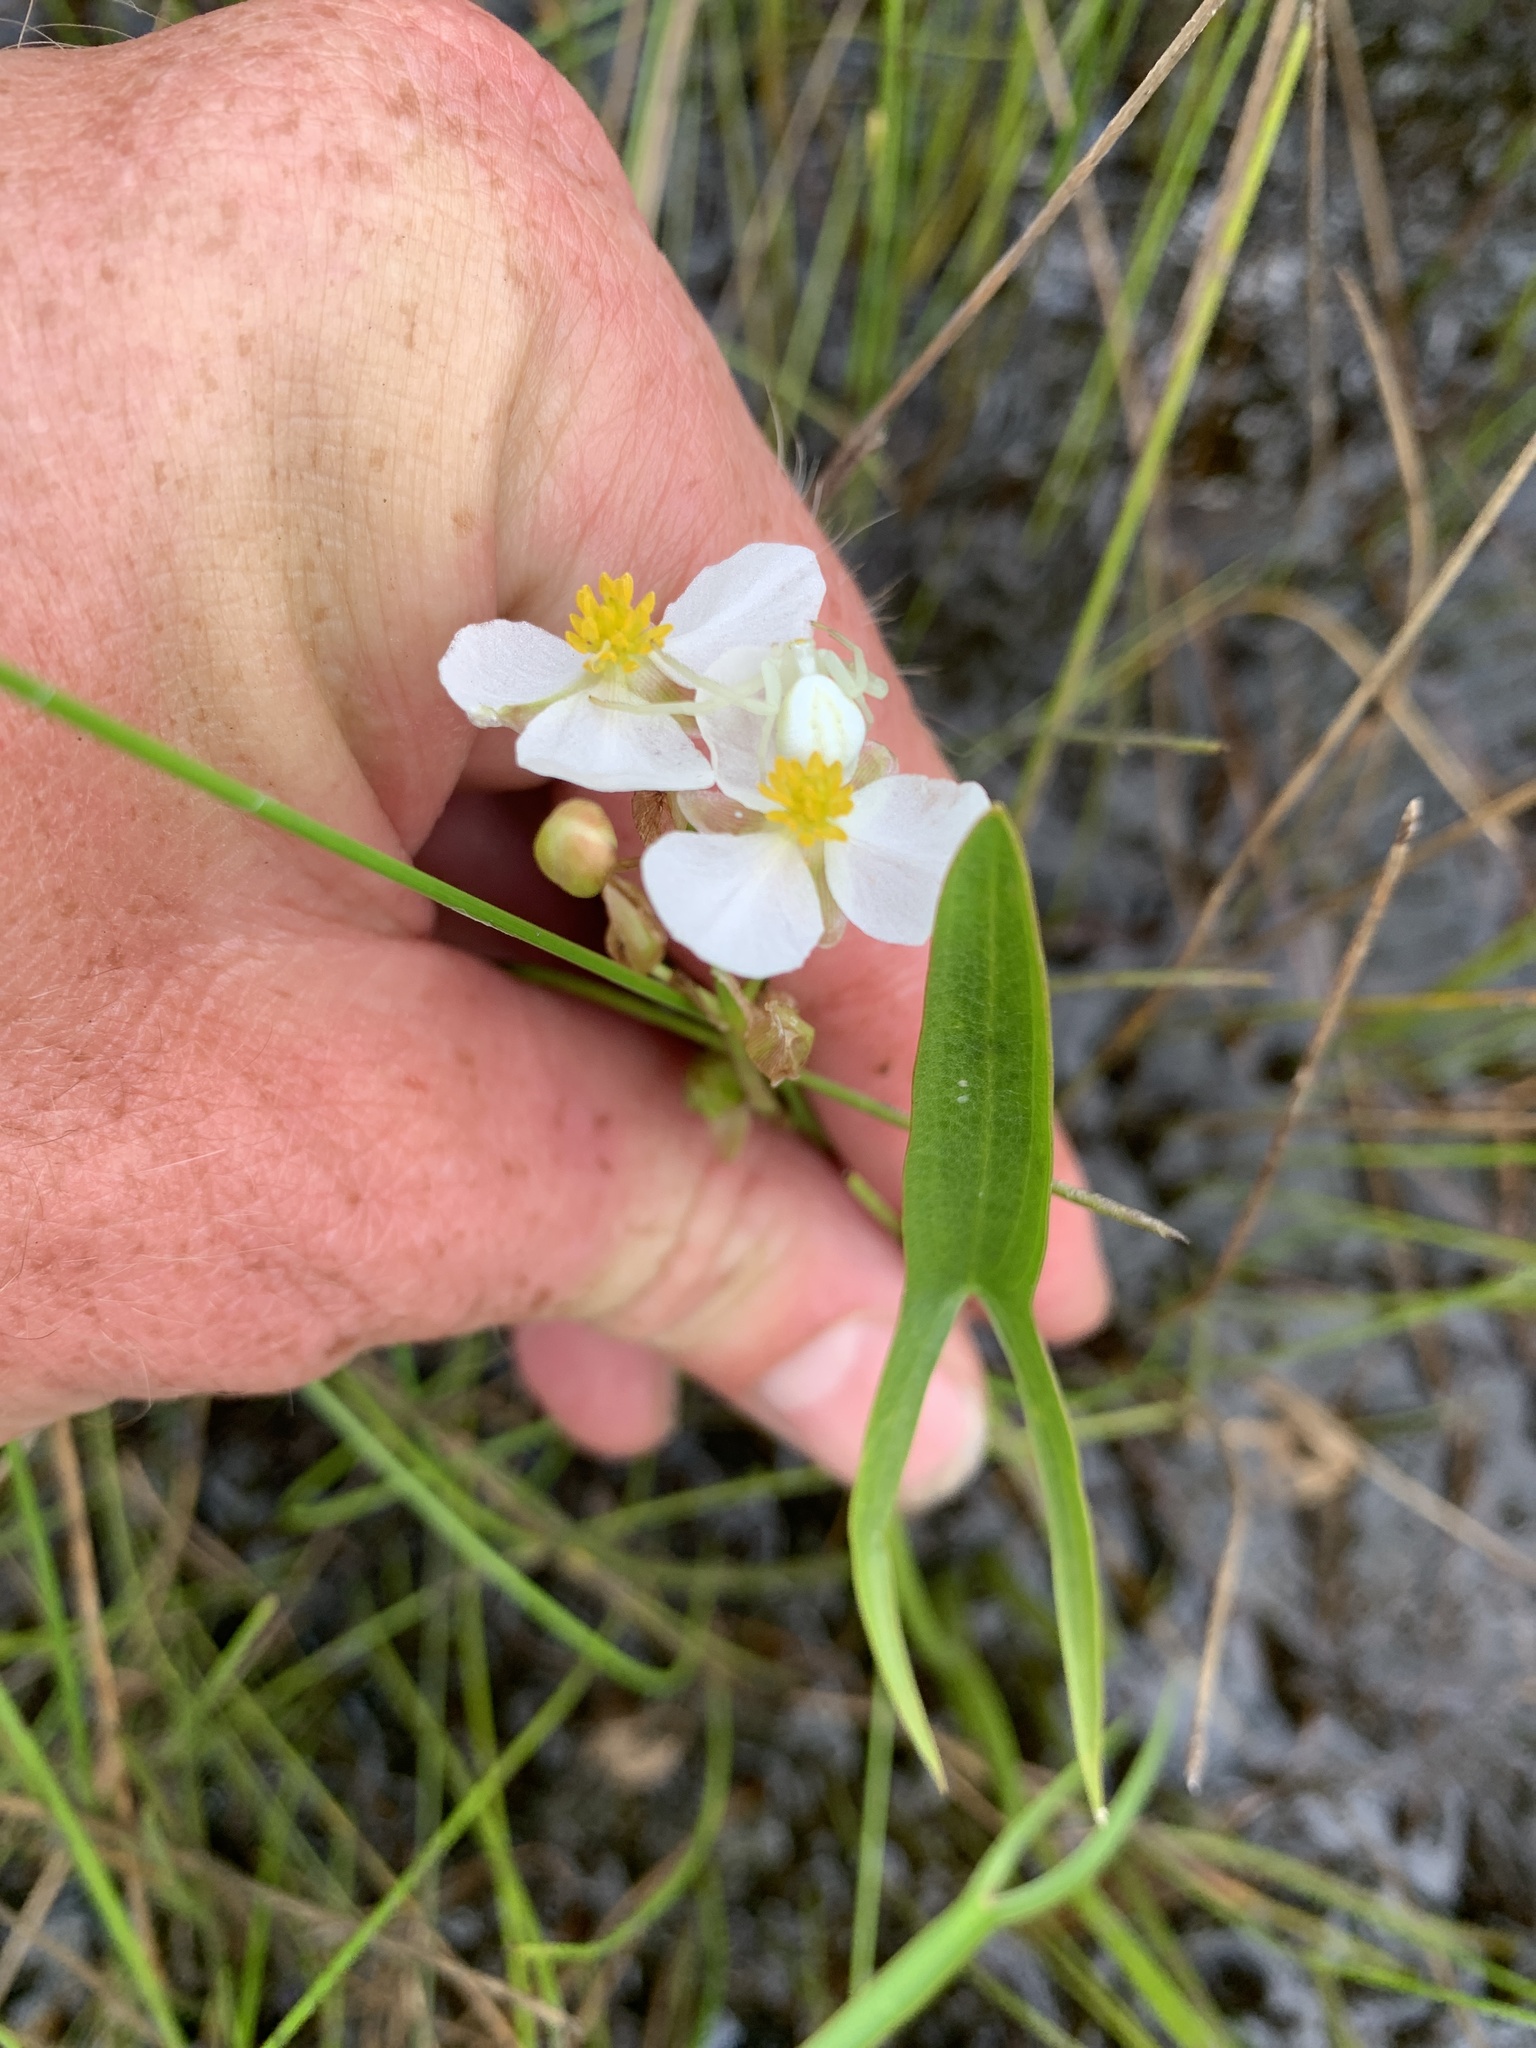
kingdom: Plantae
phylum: Tracheophyta
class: Liliopsida
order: Alismatales
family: Alismataceae
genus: Sagittaria
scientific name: Sagittaria latifolia
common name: Duck-potato
